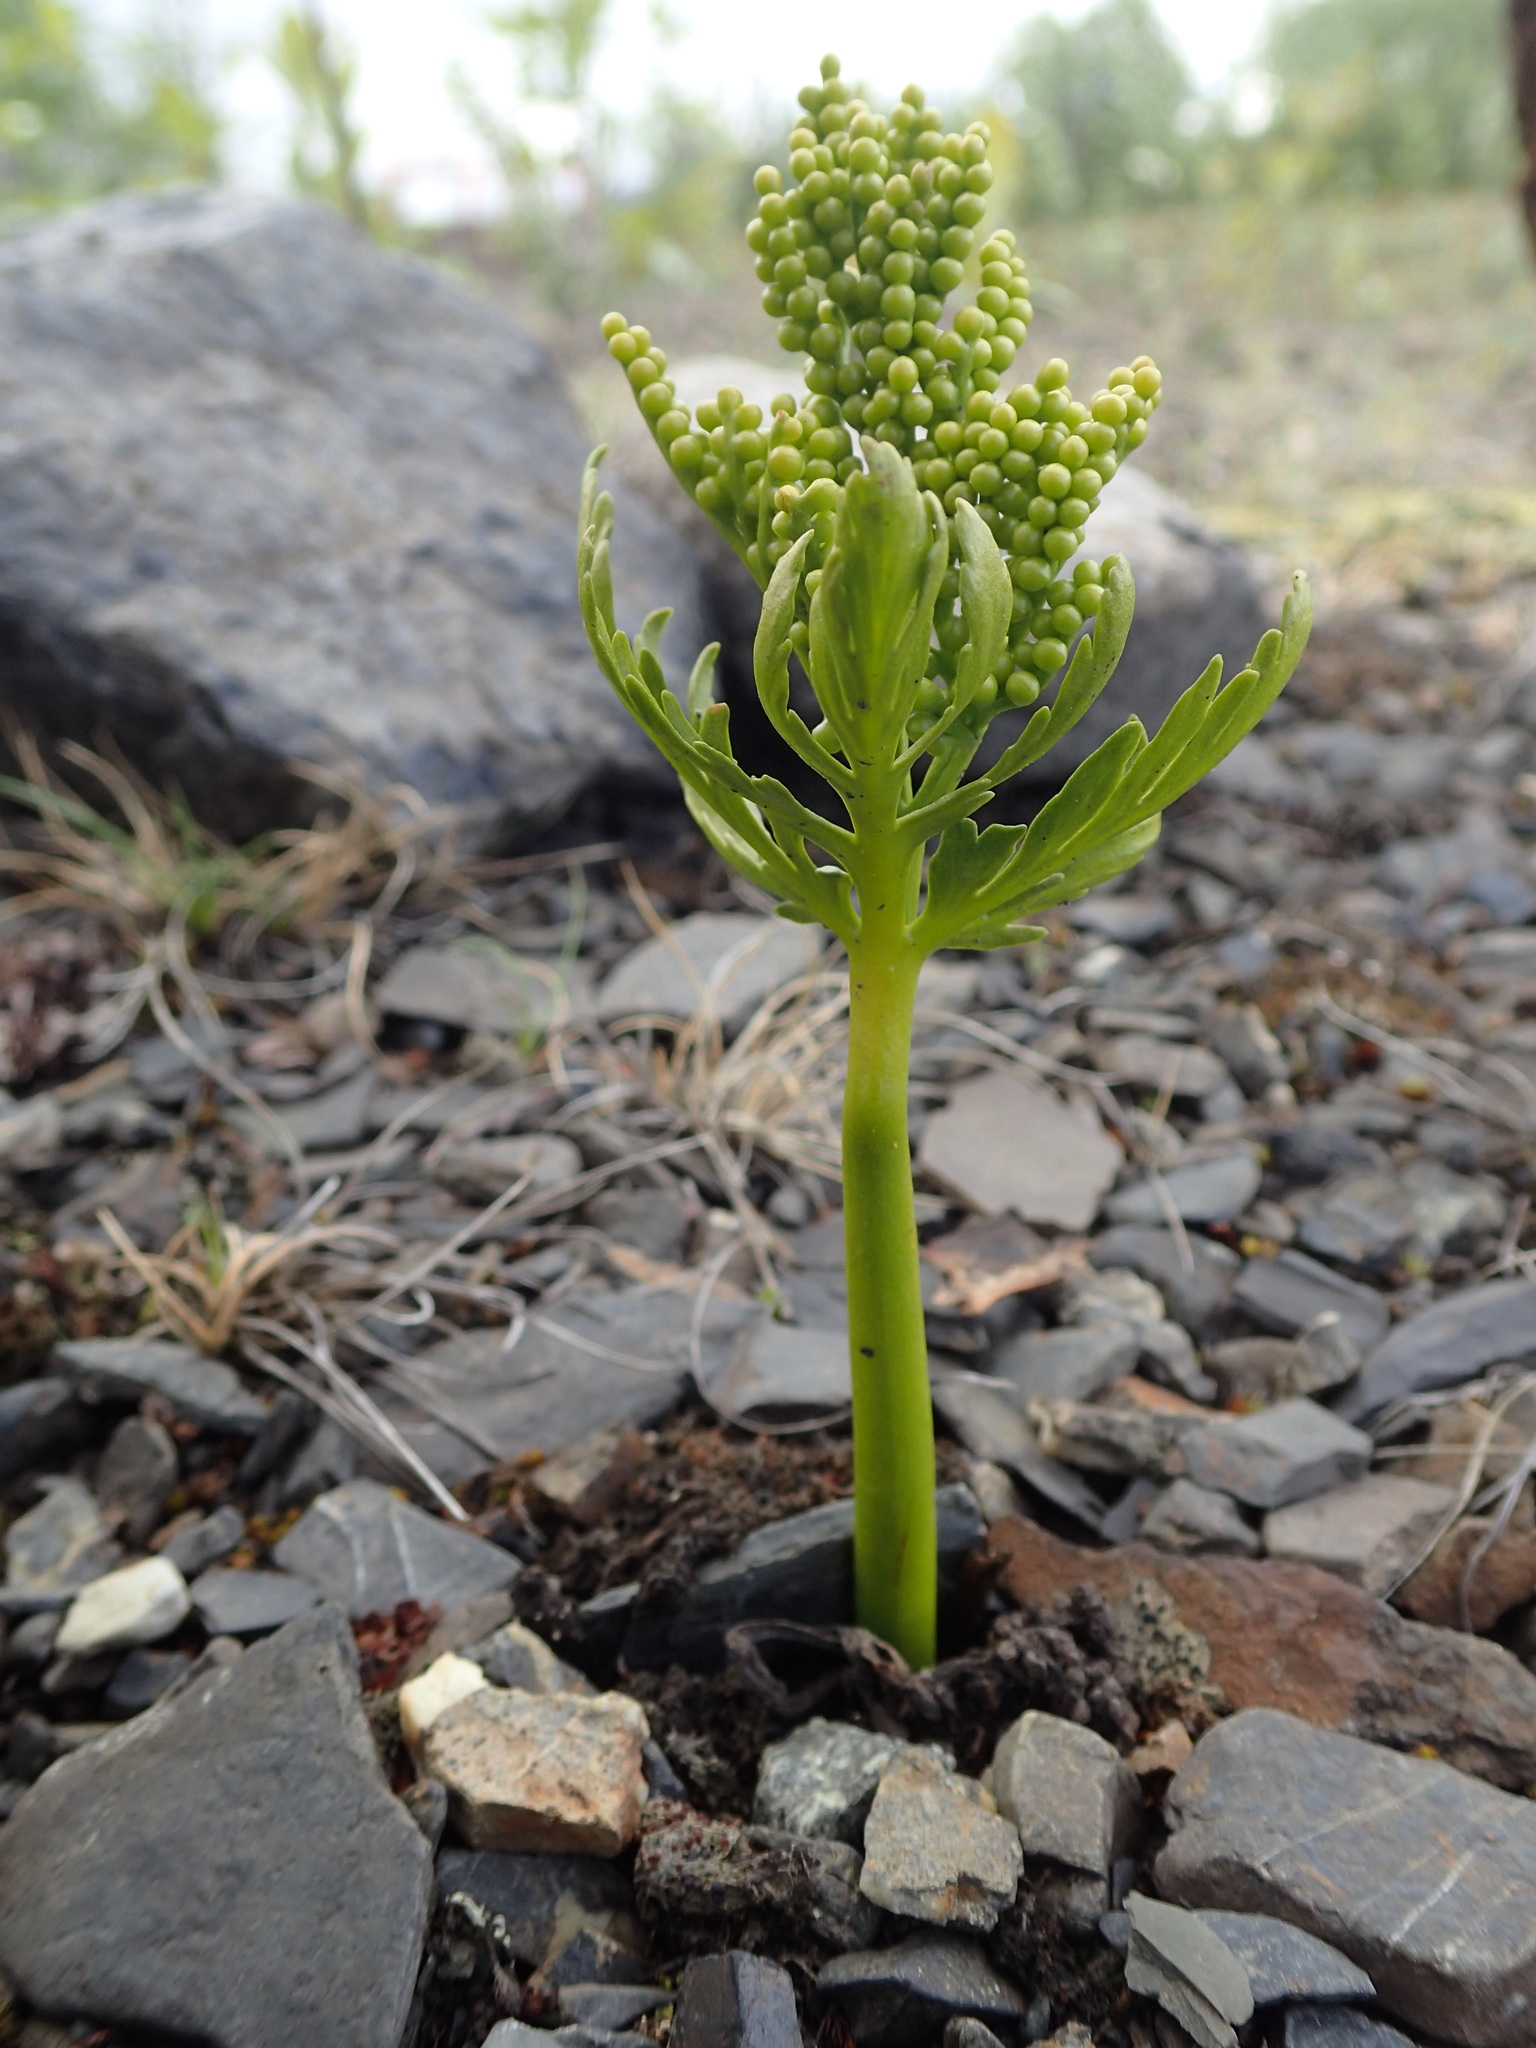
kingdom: Plantae
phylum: Tracheophyta
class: Polypodiopsida
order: Ophioglossales
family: Ophioglossaceae
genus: Botrychium
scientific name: Botrychium lanceolatum
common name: Lance-leaved moonwort
